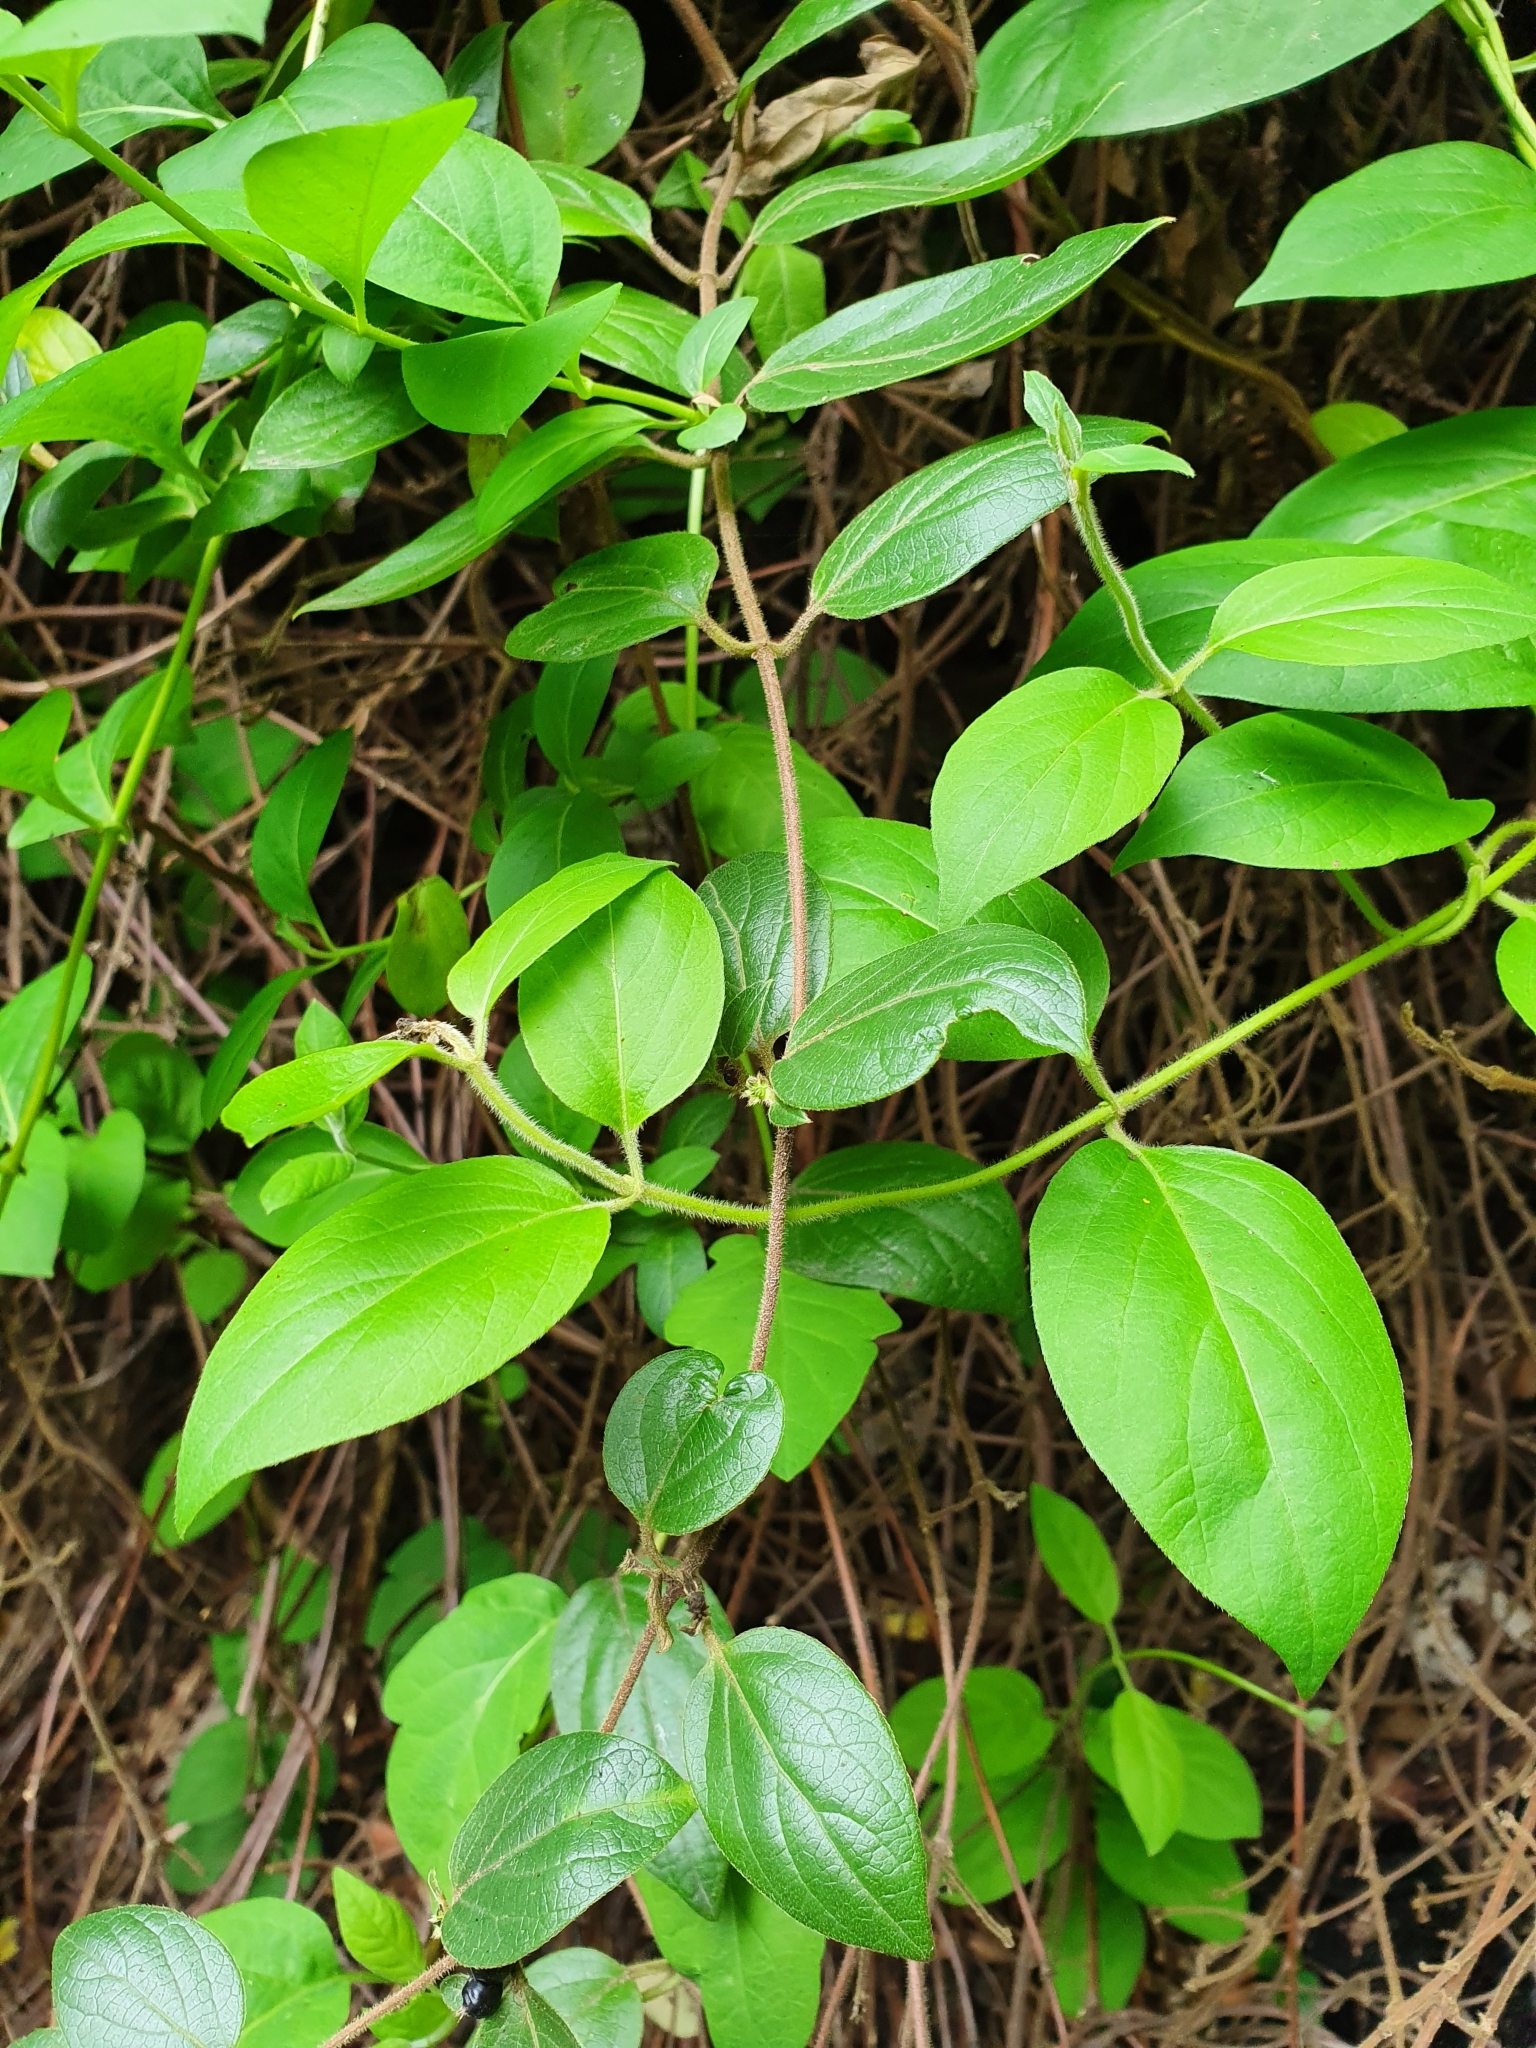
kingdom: Plantae
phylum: Tracheophyta
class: Magnoliopsida
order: Dipsacales
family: Caprifoliaceae
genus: Lonicera
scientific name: Lonicera japonica
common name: Japanese honeysuckle
